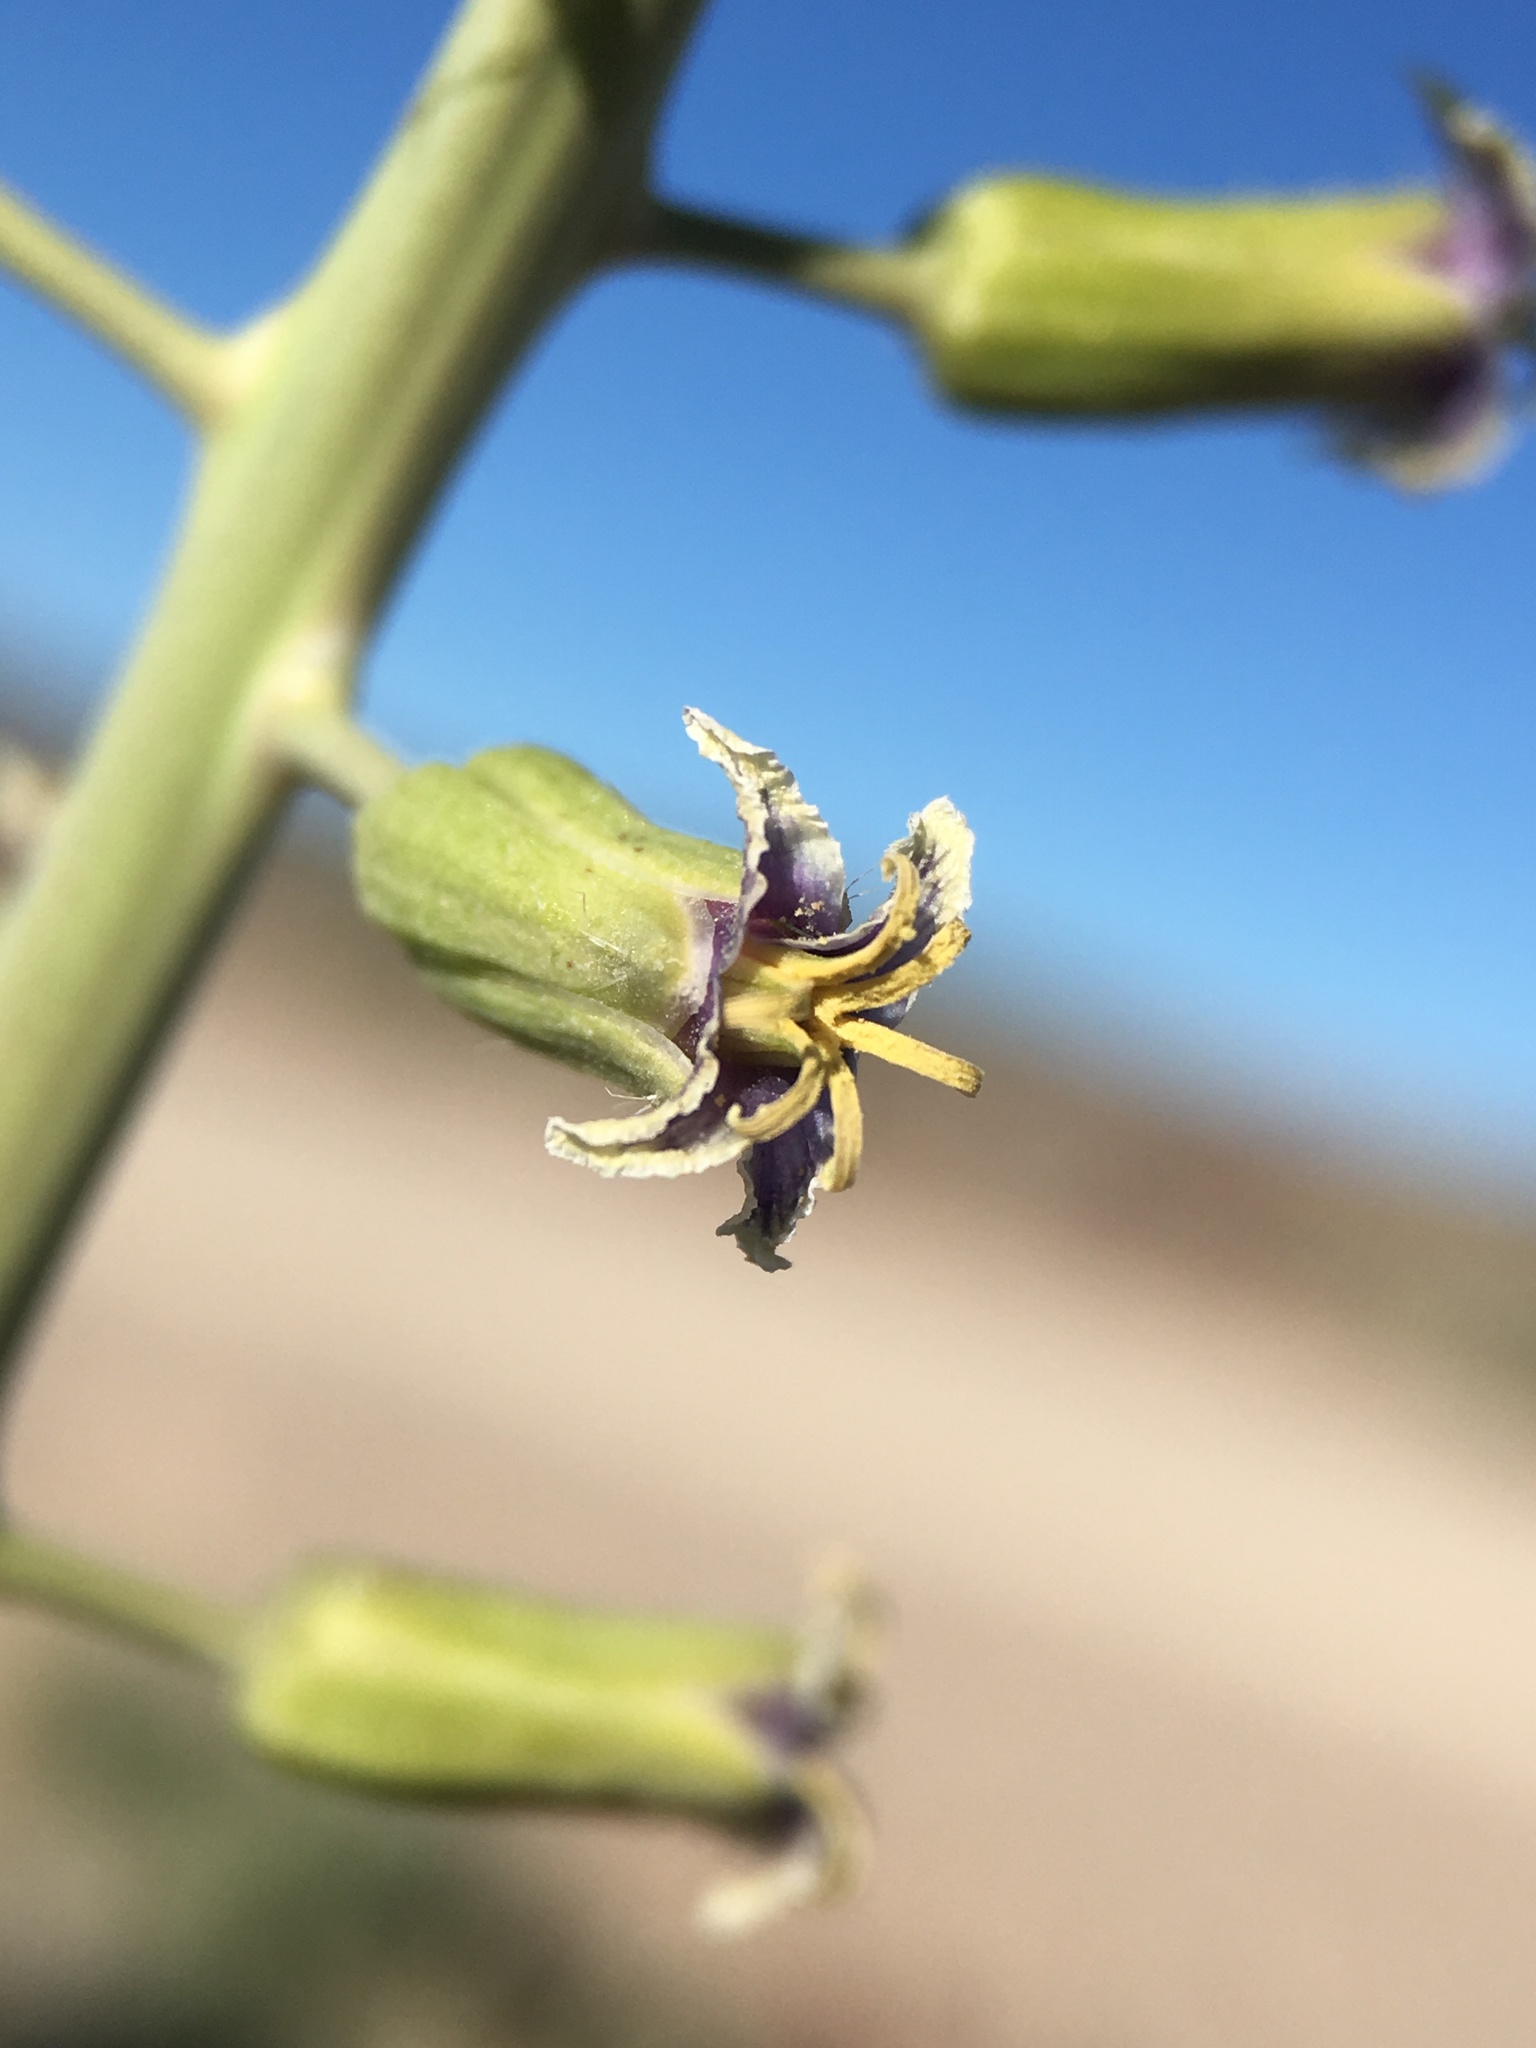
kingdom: Plantae
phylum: Tracheophyta
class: Magnoliopsida
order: Brassicales
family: Brassicaceae
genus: Streptanthus
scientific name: Streptanthus pilosus
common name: Chocolate drops
